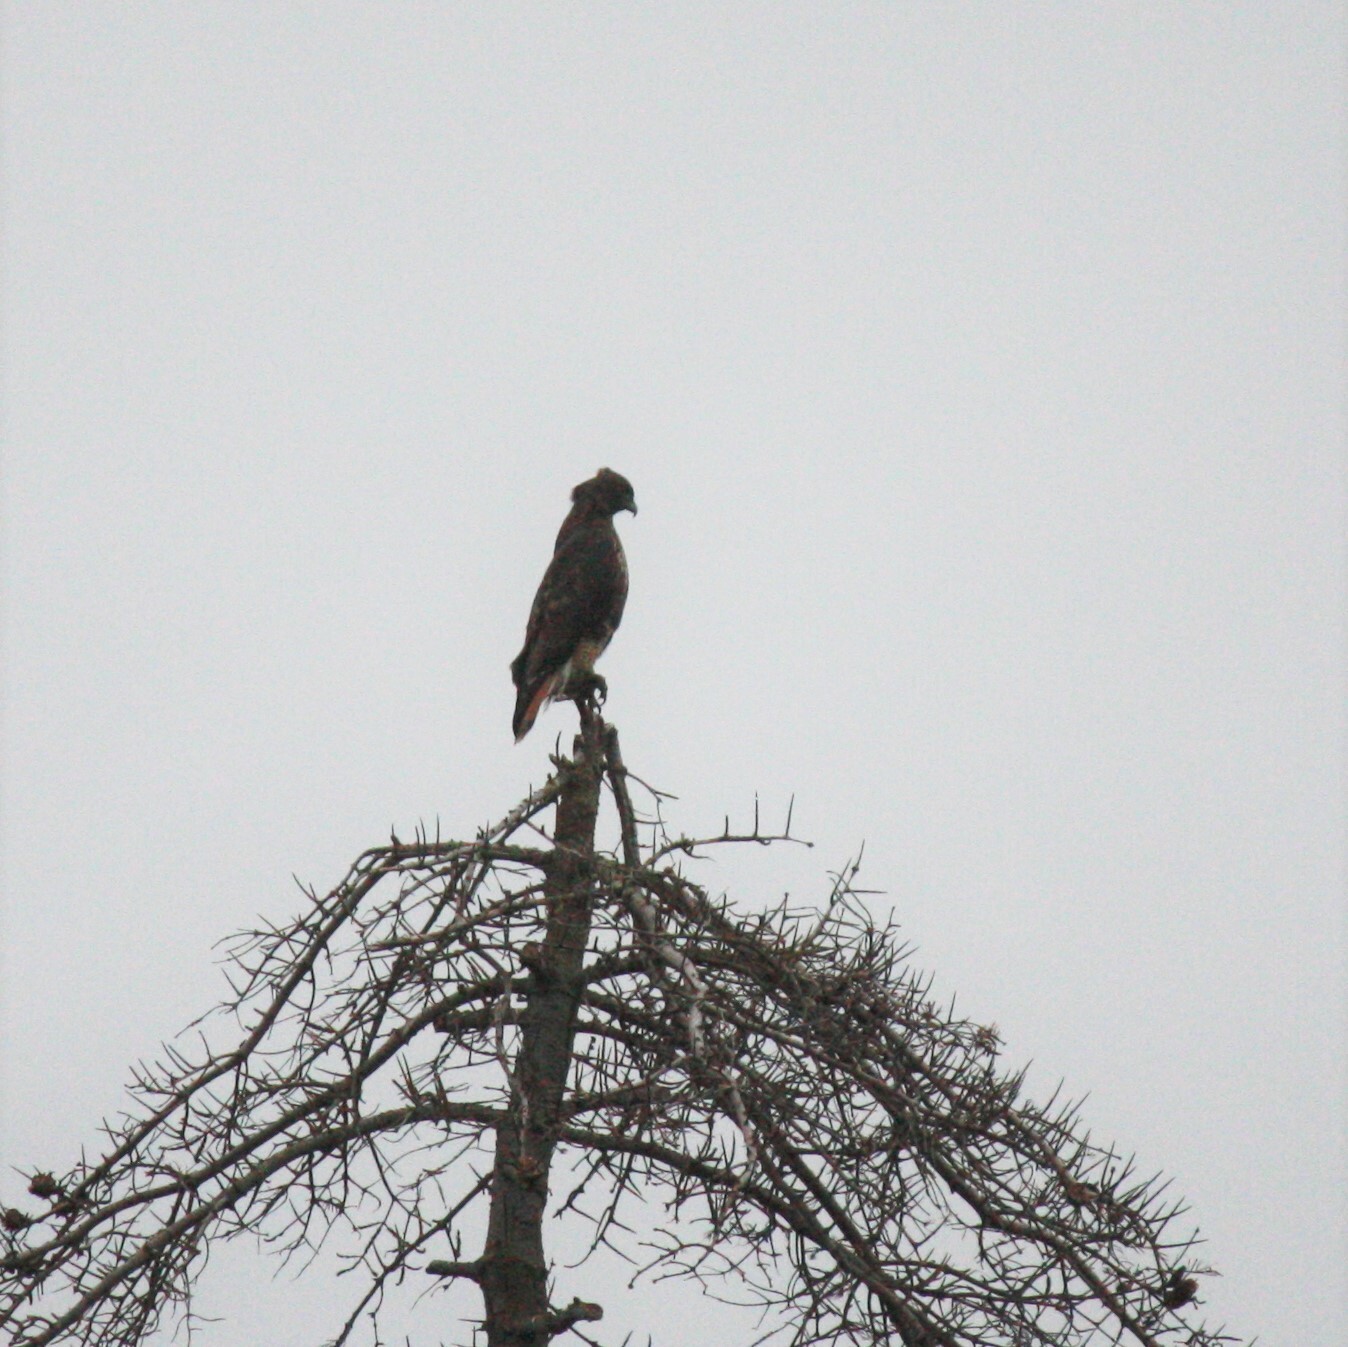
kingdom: Animalia
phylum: Chordata
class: Aves
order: Accipitriformes
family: Accipitridae
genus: Buteo
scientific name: Buteo jamaicensis
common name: Red-tailed hawk
